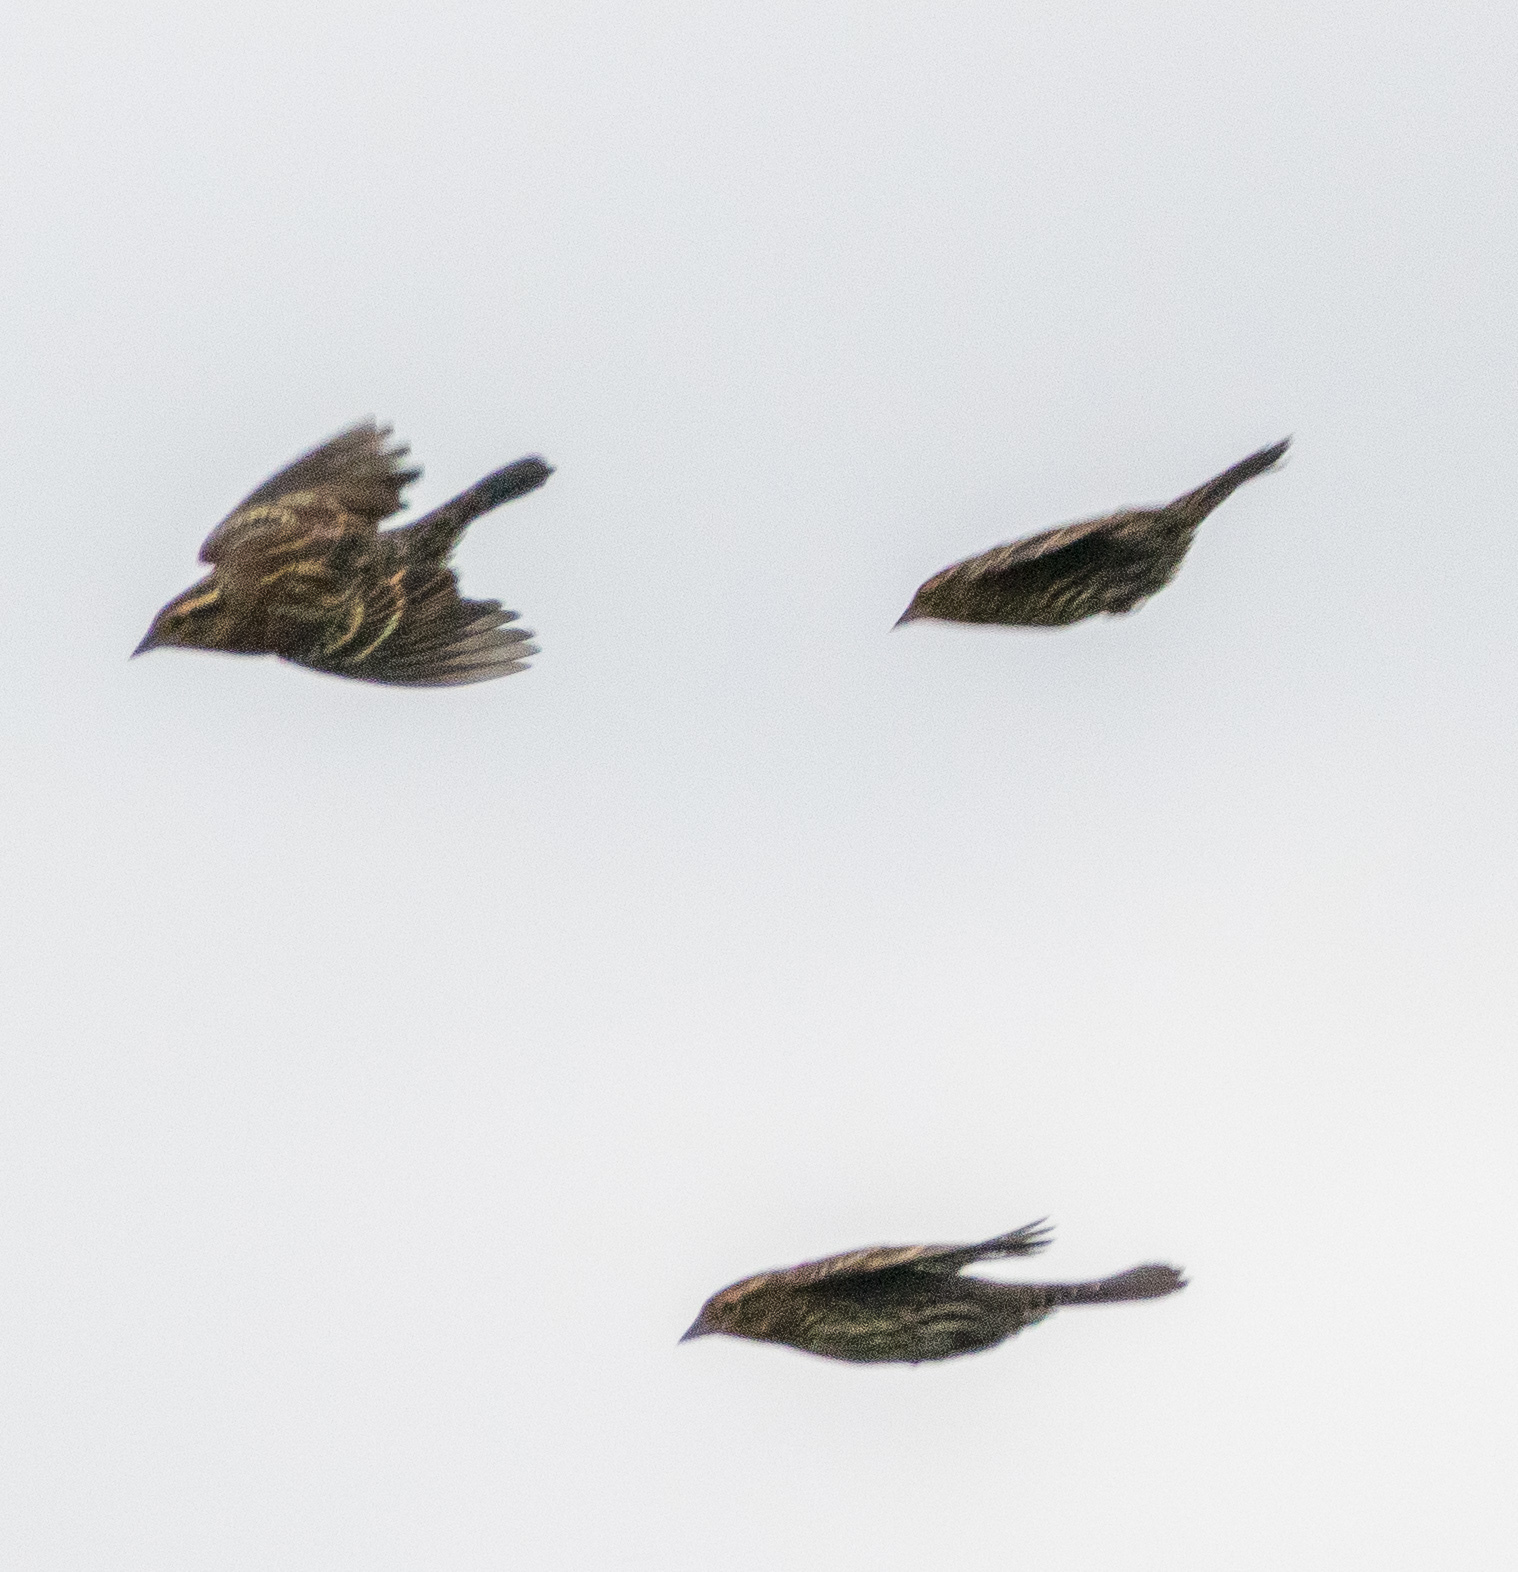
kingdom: Animalia
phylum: Chordata
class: Aves
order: Passeriformes
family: Icteridae
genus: Agelaius
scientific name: Agelaius phoeniceus
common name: Red-winged blackbird
